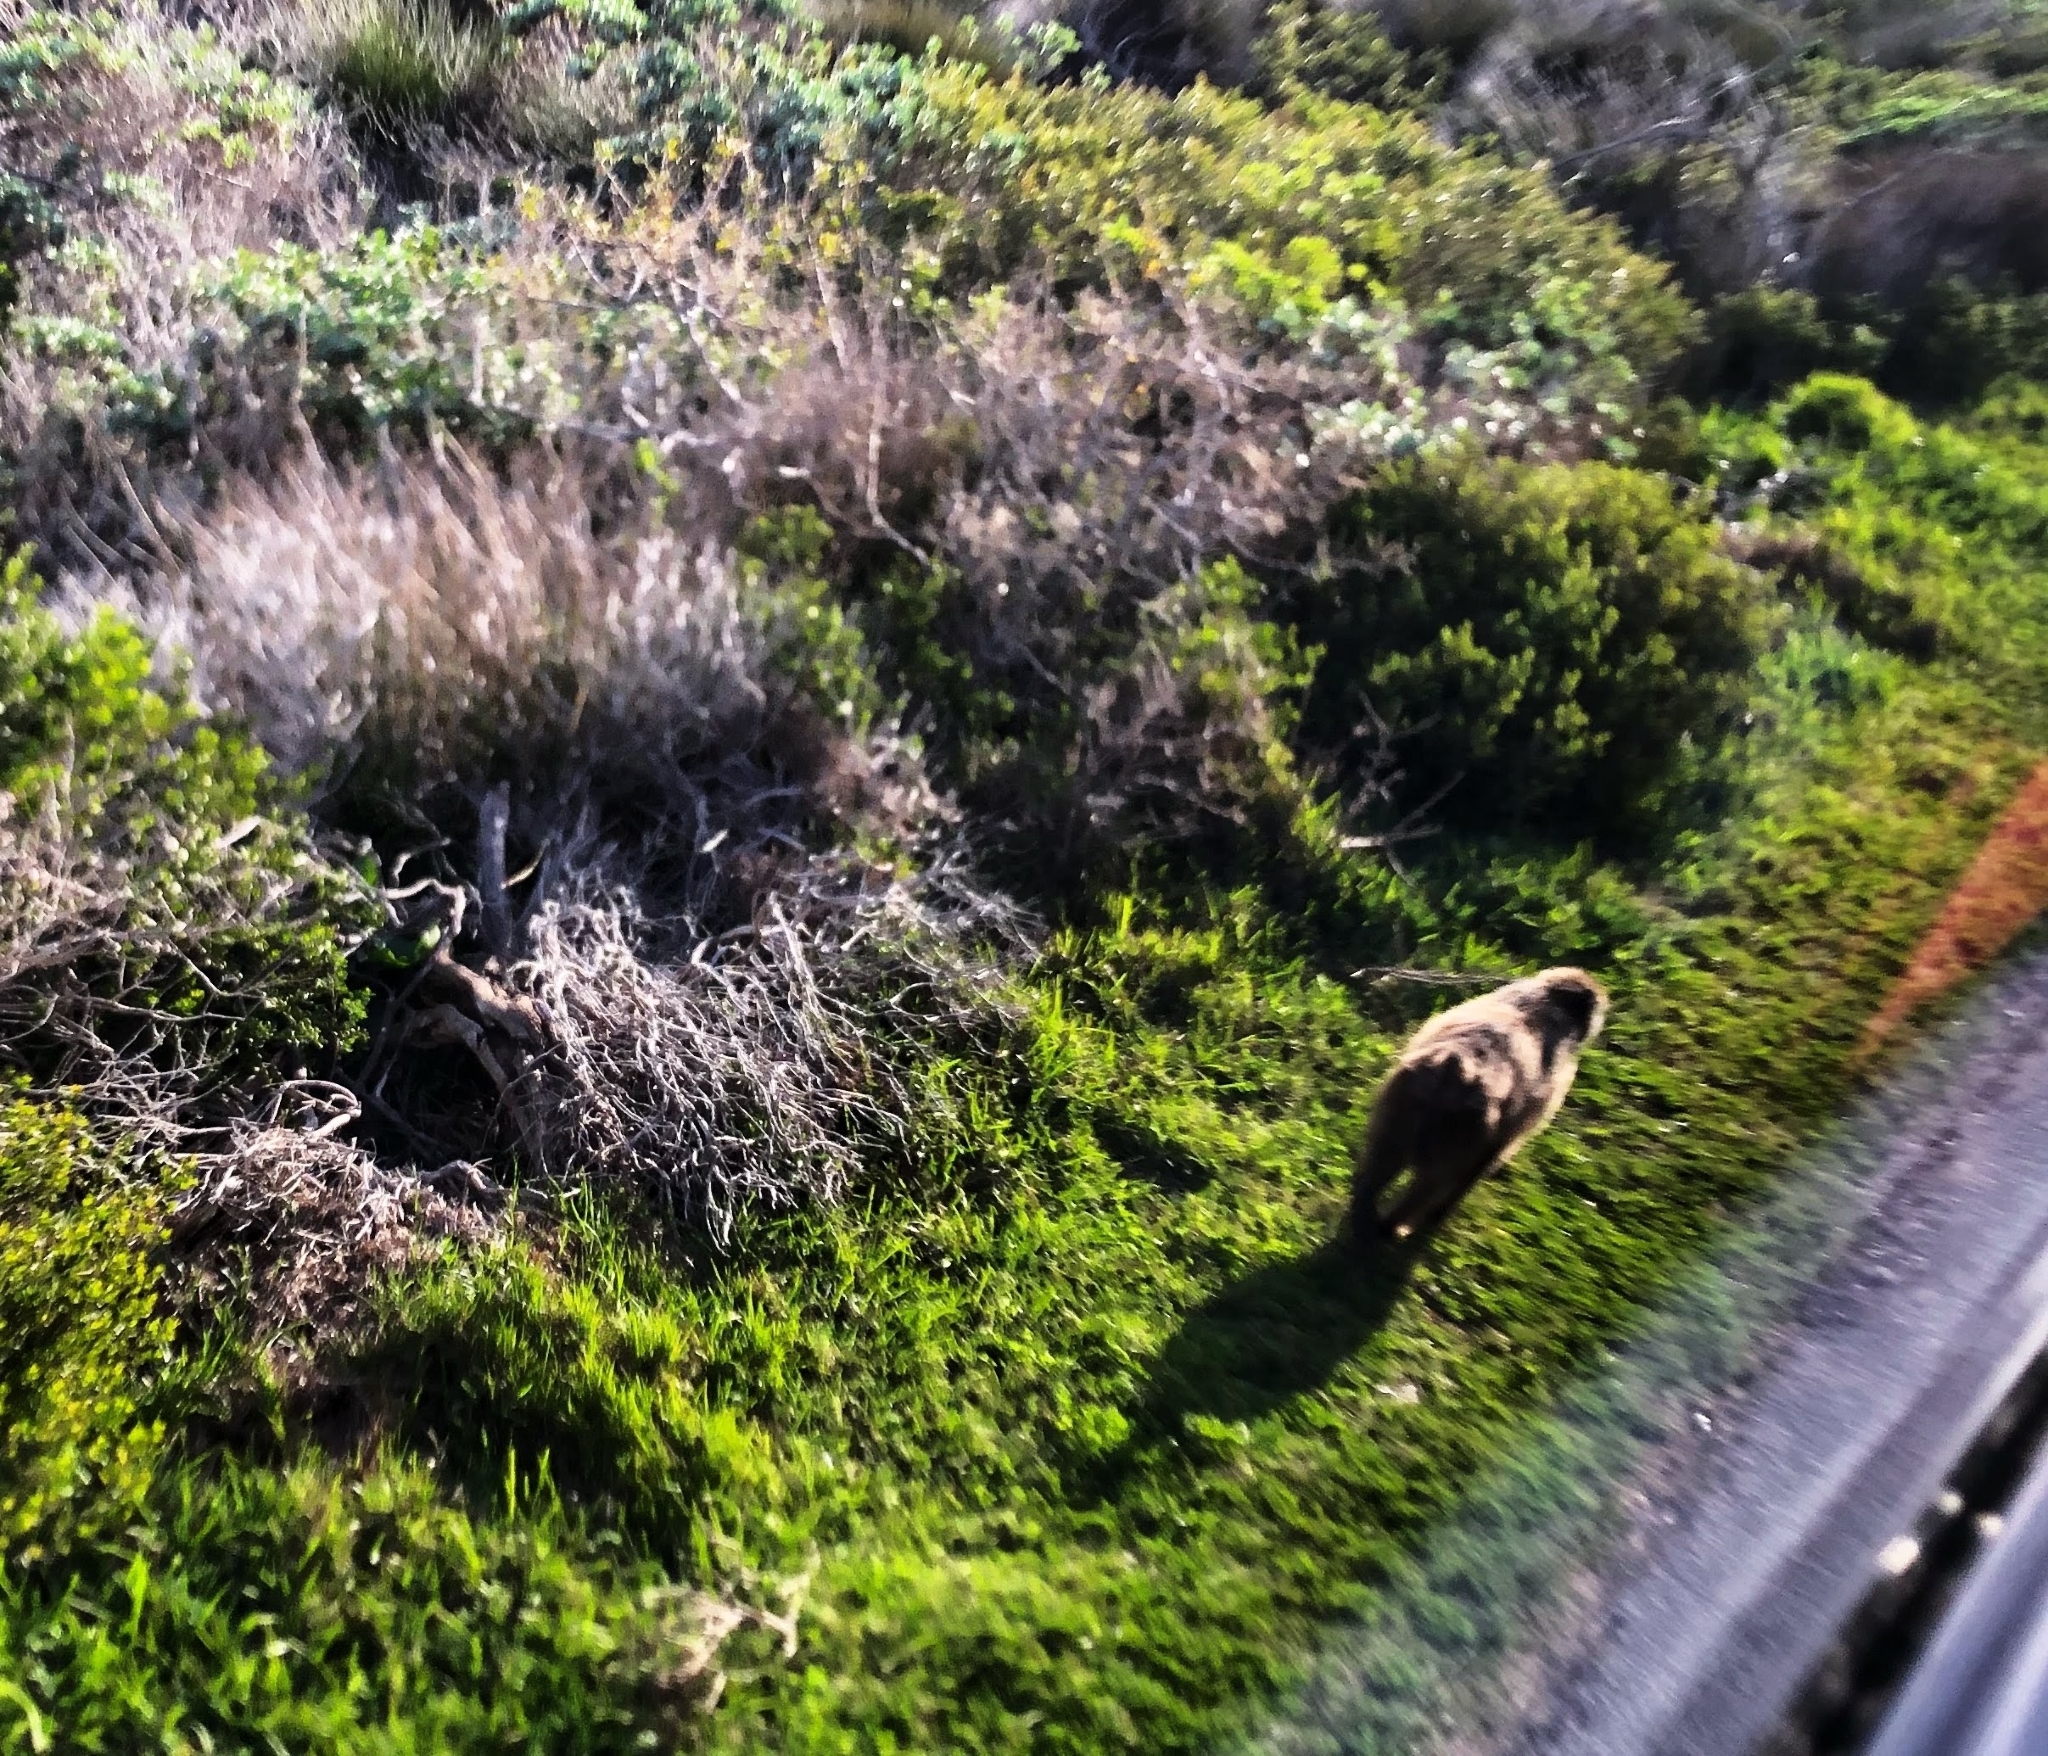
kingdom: Animalia
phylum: Chordata
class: Mammalia
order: Primates
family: Cercopithecidae
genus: Papio
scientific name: Papio ursinus
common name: Chacma baboon
